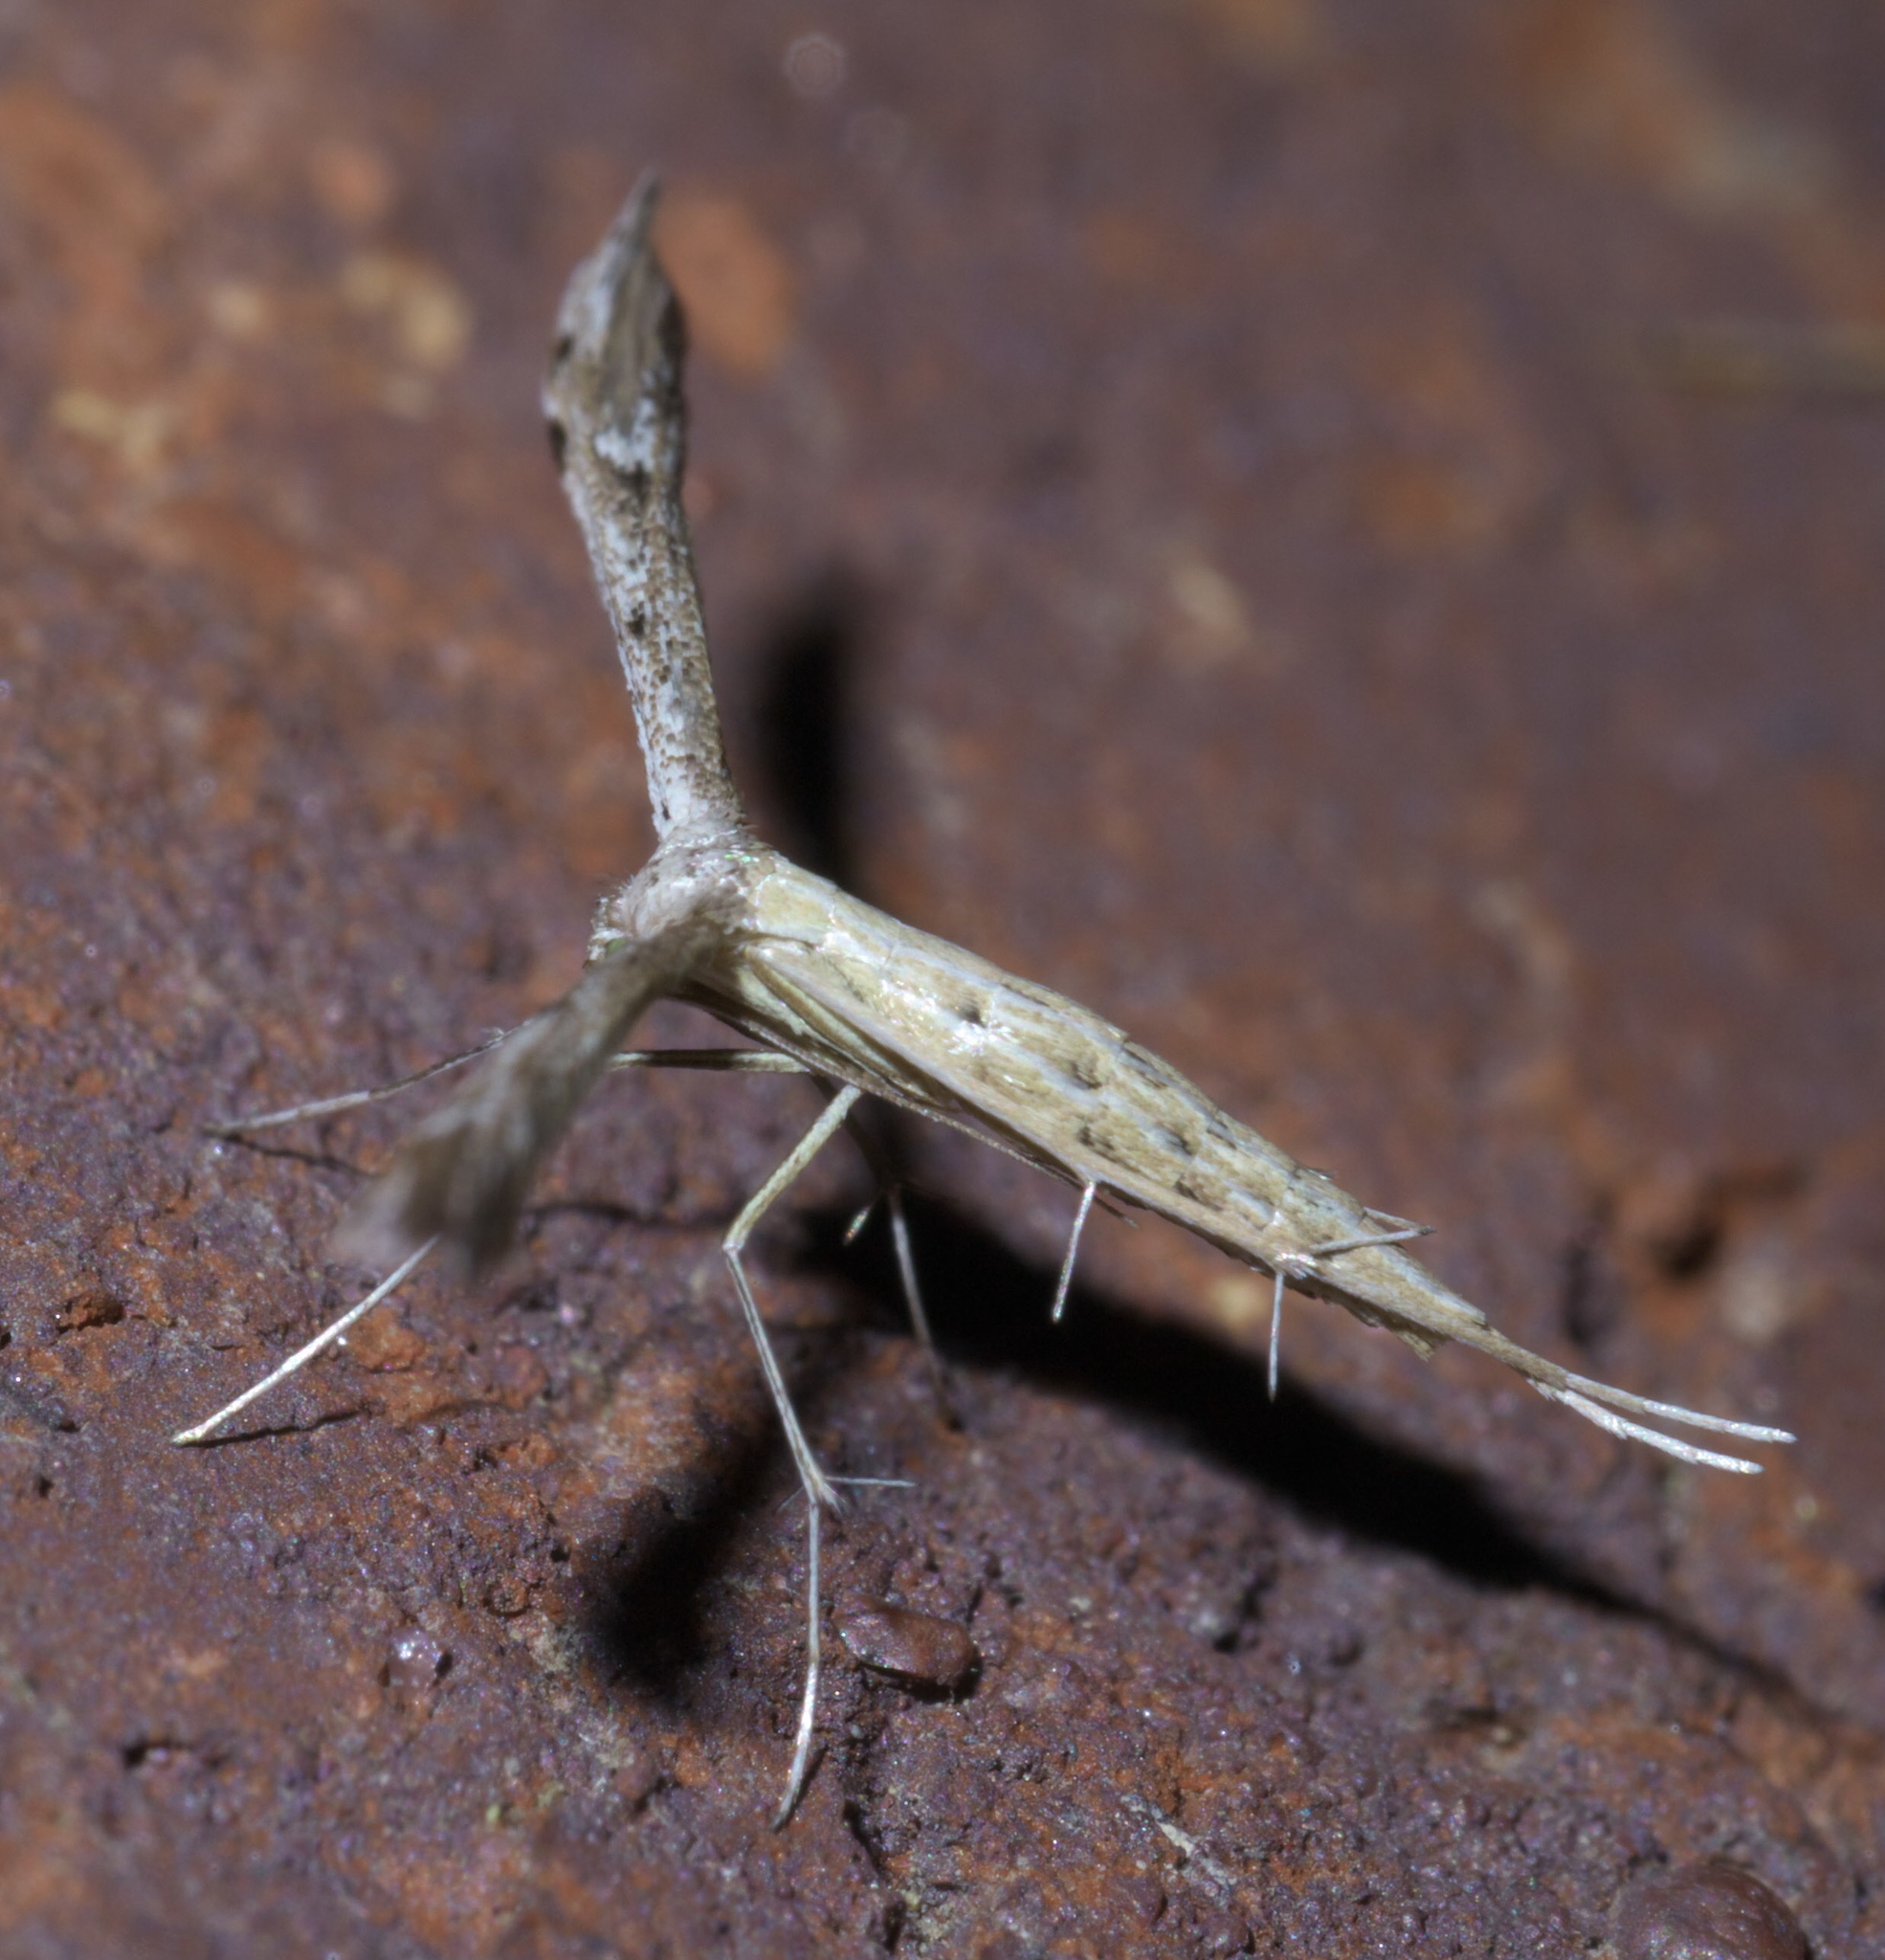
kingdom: Animalia
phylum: Arthropoda
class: Insecta
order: Lepidoptera
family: Pterophoridae
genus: Pselnophorus
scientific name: Pselnophorus belfragei
